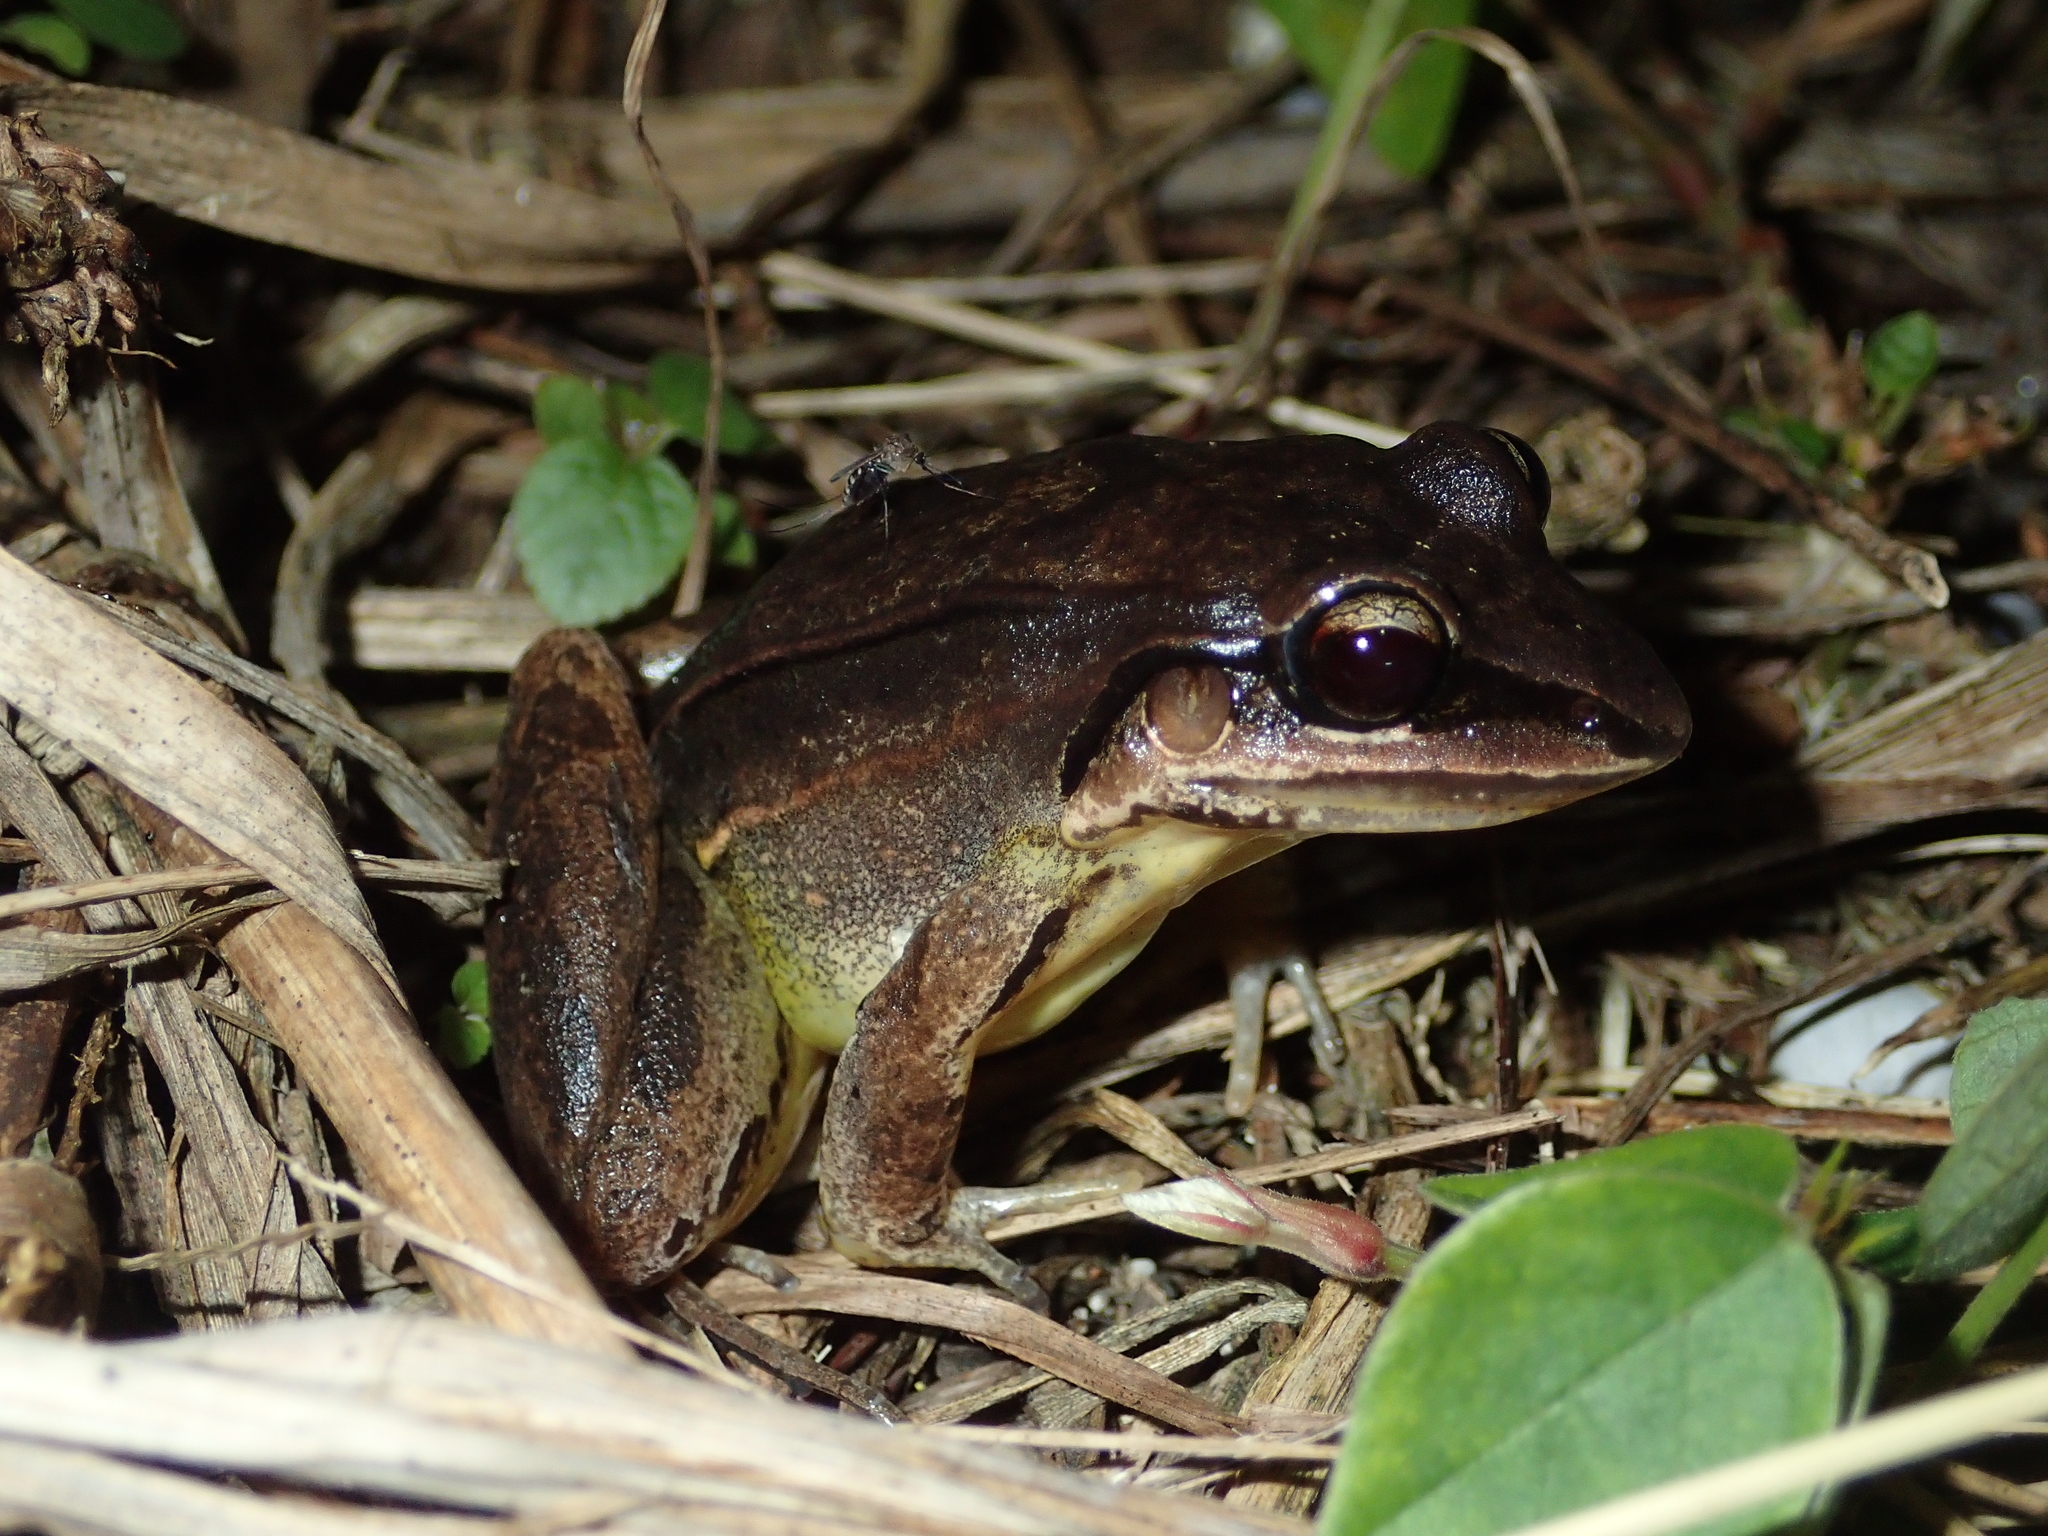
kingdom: Animalia
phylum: Chordata
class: Amphibia
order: Anura
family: Leptodactylidae
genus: Leptodactylus
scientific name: Leptodactylus mystaceus
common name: Amazonian white-lipped frog
